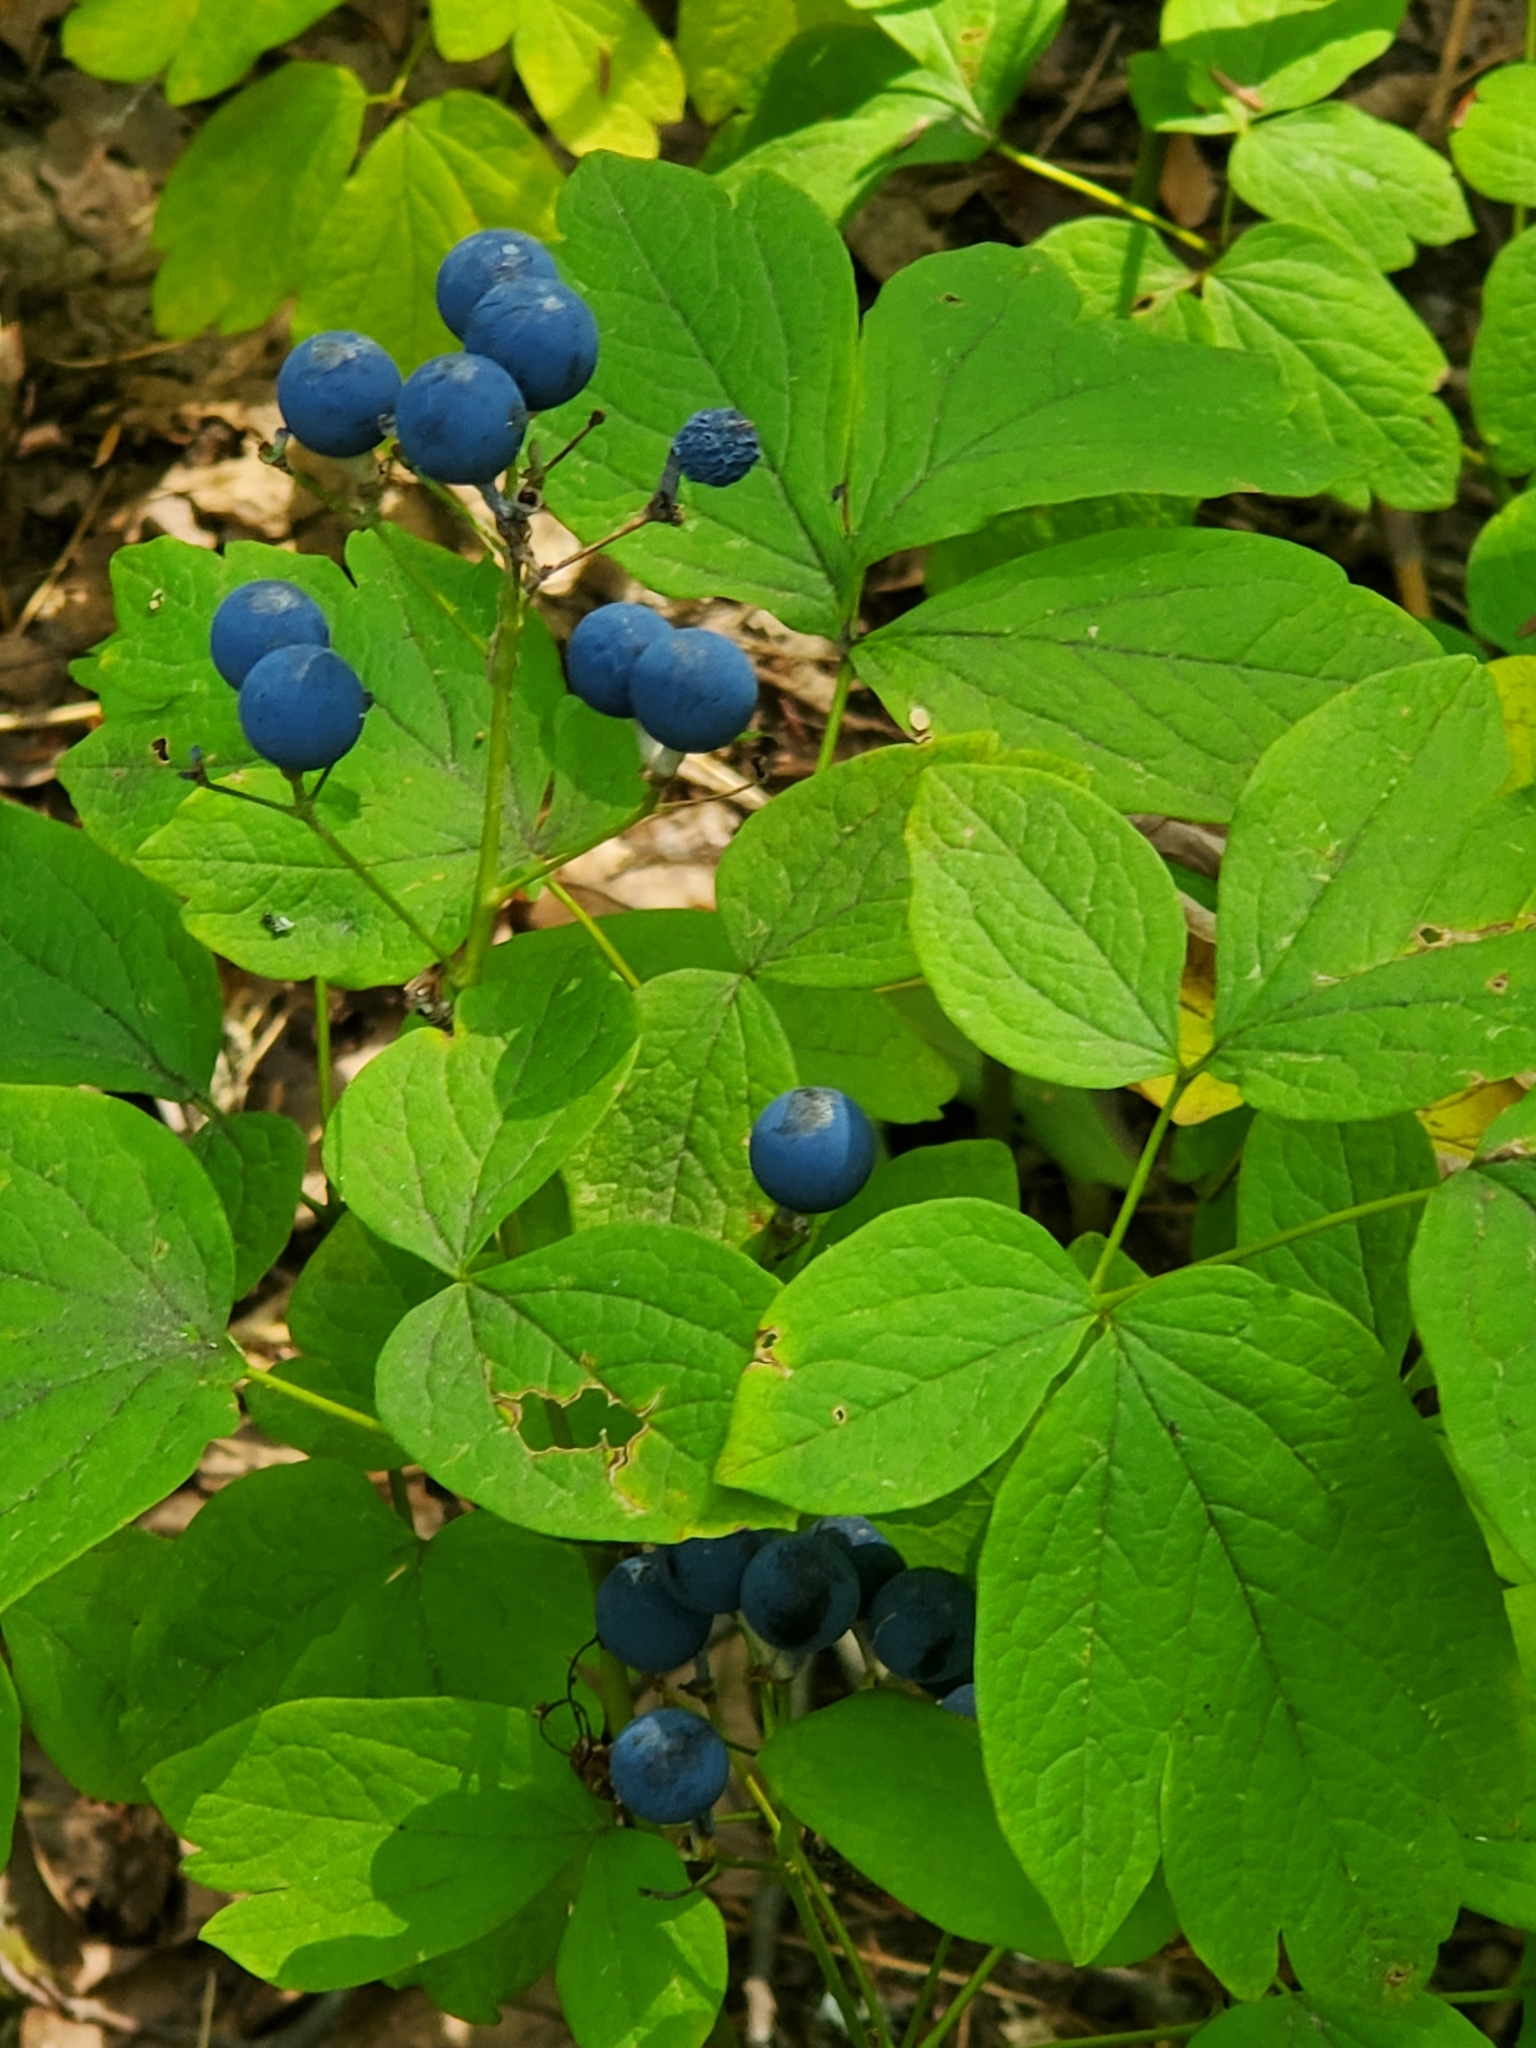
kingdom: Plantae
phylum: Tracheophyta
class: Magnoliopsida
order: Ranunculales
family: Berberidaceae
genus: Caulophyllum
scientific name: Caulophyllum thalictroides
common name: Blue cohosh
